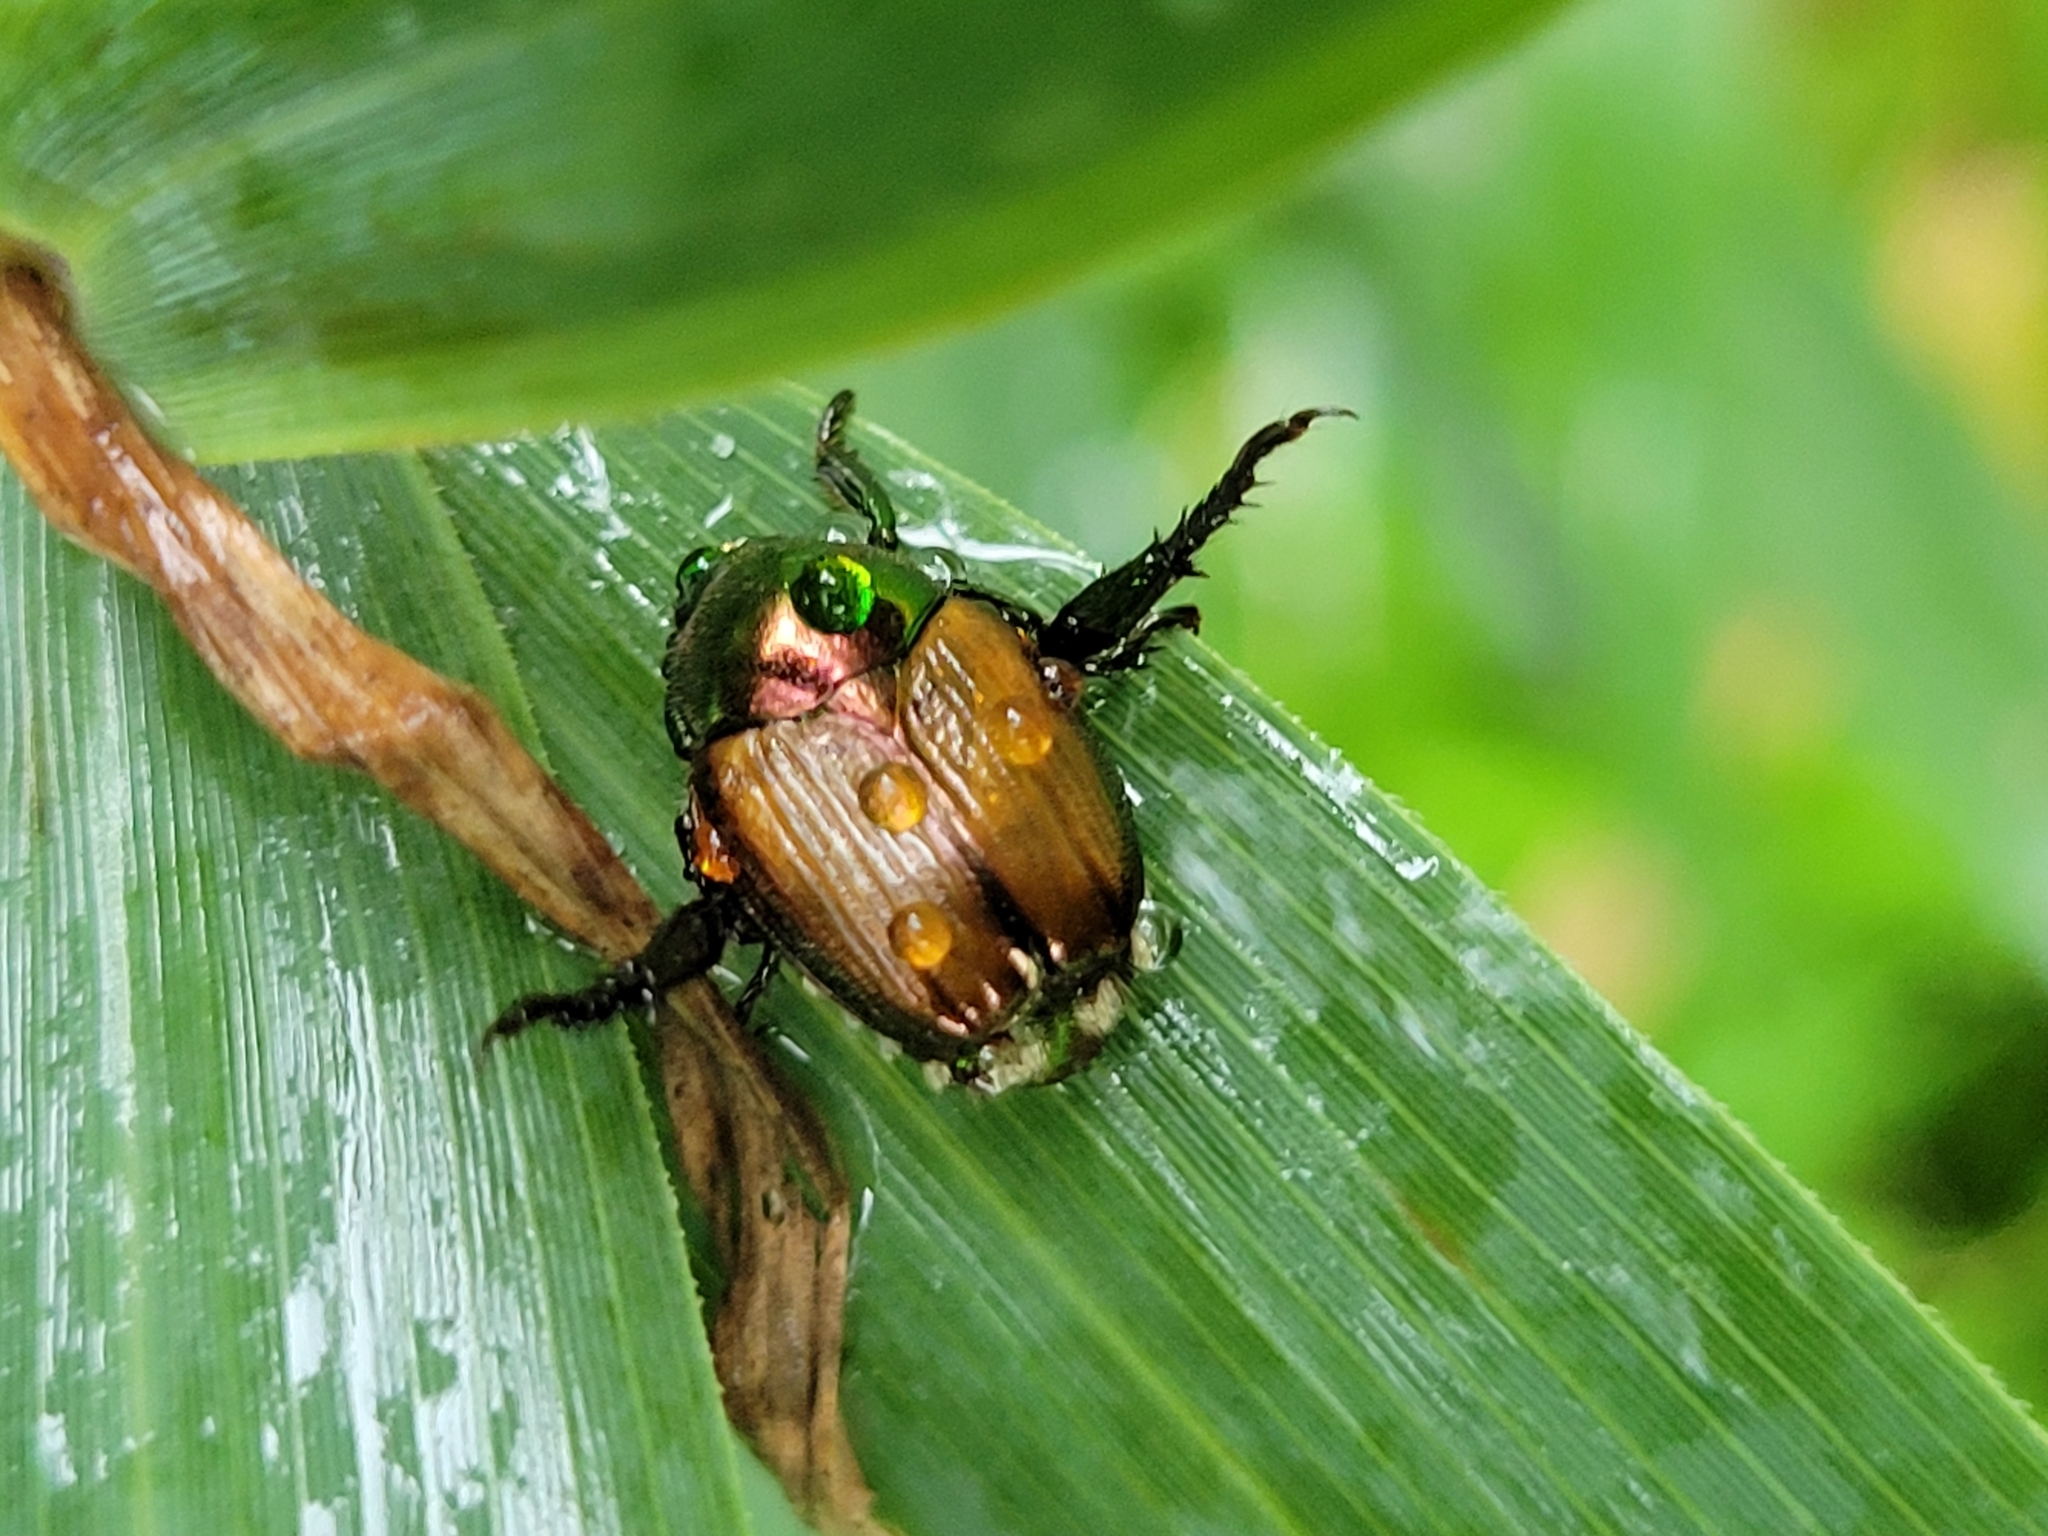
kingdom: Animalia
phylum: Arthropoda
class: Insecta
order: Coleoptera
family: Scarabaeidae
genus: Popillia
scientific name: Popillia japonica
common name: Japanese beetle
